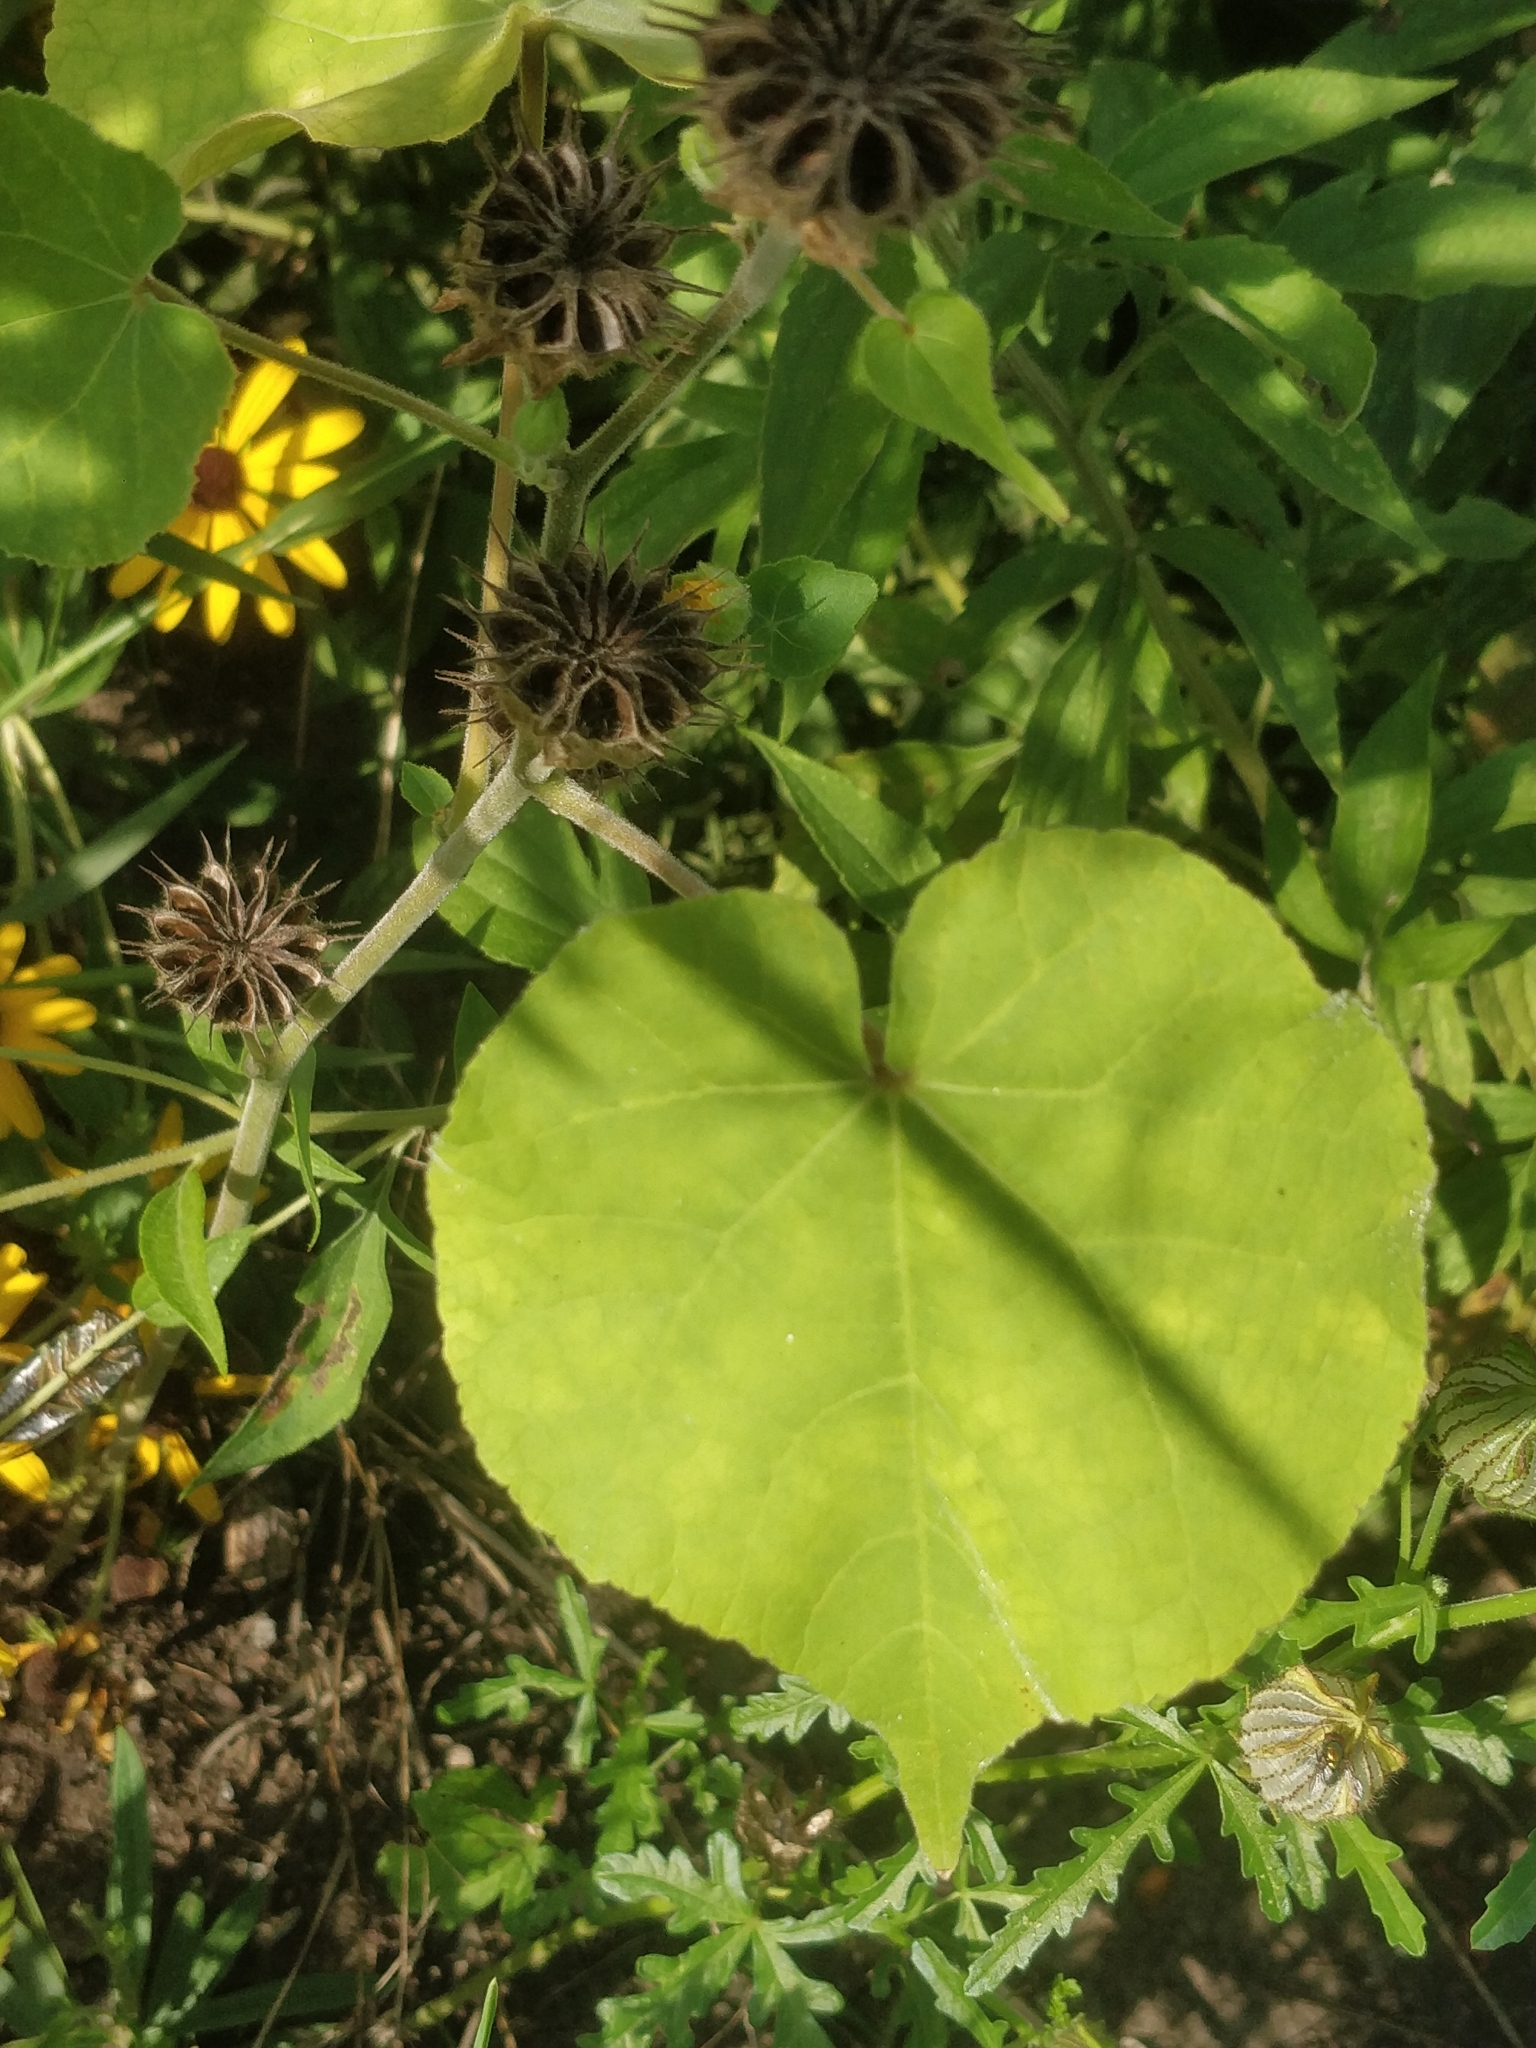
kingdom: Plantae
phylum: Tracheophyta
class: Magnoliopsida
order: Malvales
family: Malvaceae
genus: Abutilon
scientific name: Abutilon theophrasti
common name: Velvetleaf
